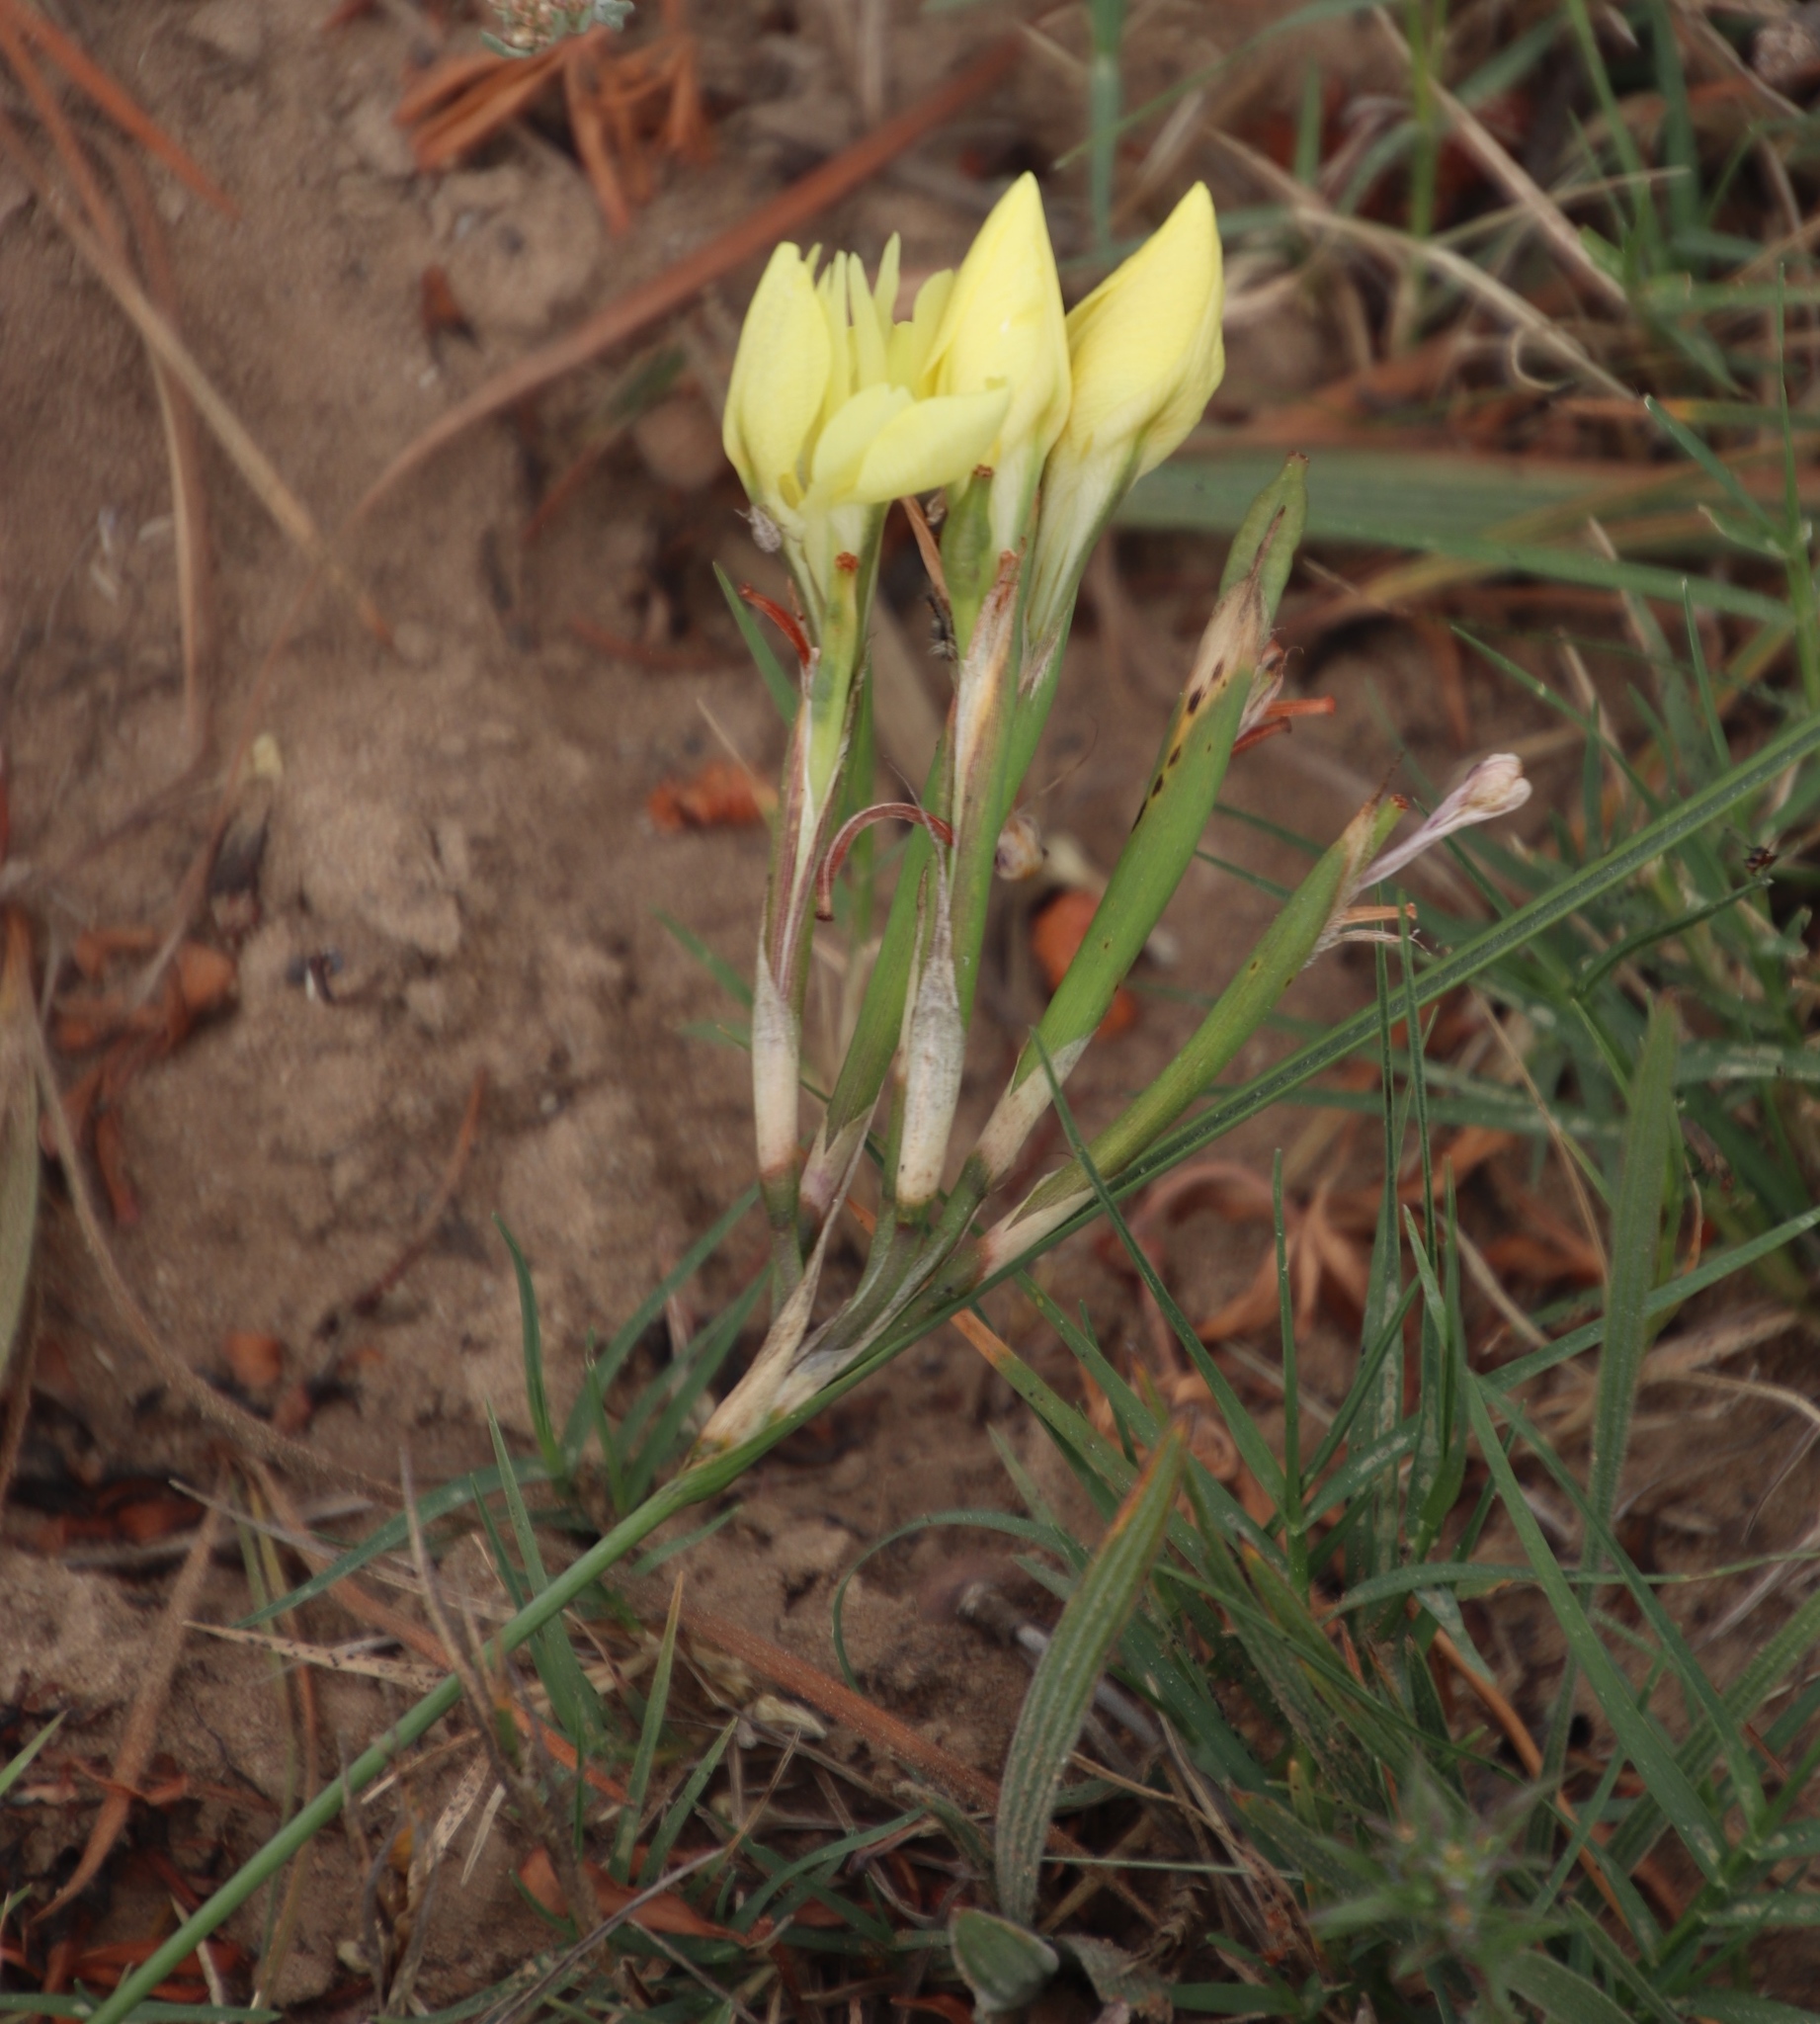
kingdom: Plantae
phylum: Tracheophyta
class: Liliopsida
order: Asparagales
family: Iridaceae
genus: Moraea
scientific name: Moraea fugax
